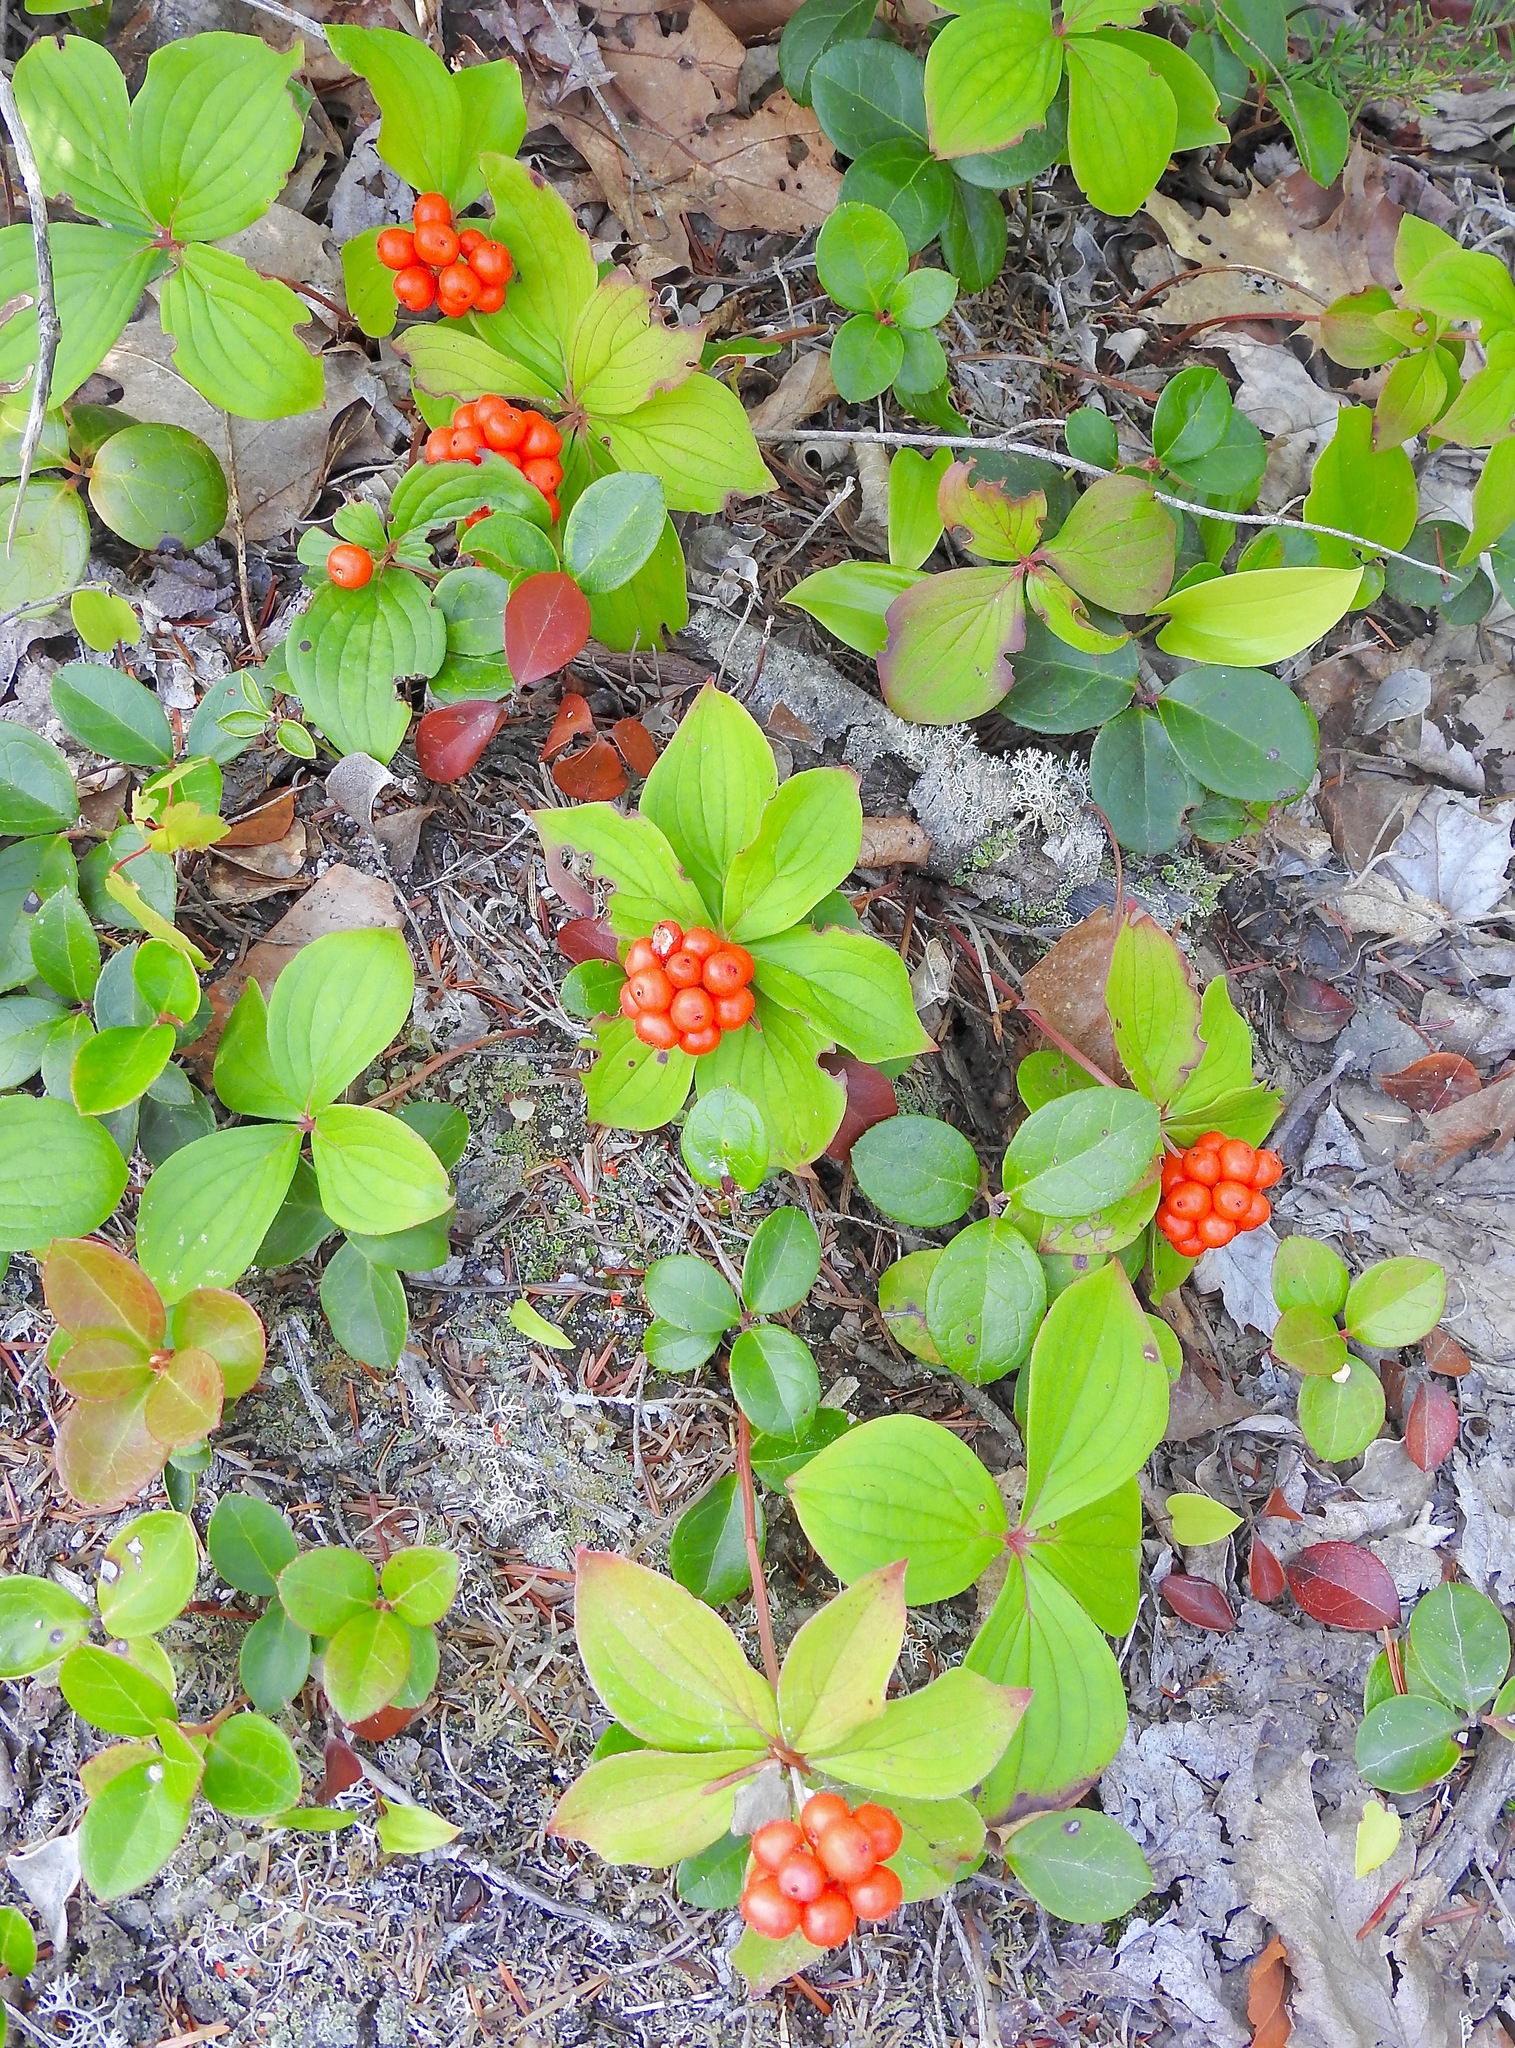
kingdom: Plantae
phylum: Tracheophyta
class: Magnoliopsida
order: Cornales
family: Cornaceae
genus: Cornus
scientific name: Cornus canadensis
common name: Creeping dogwood
